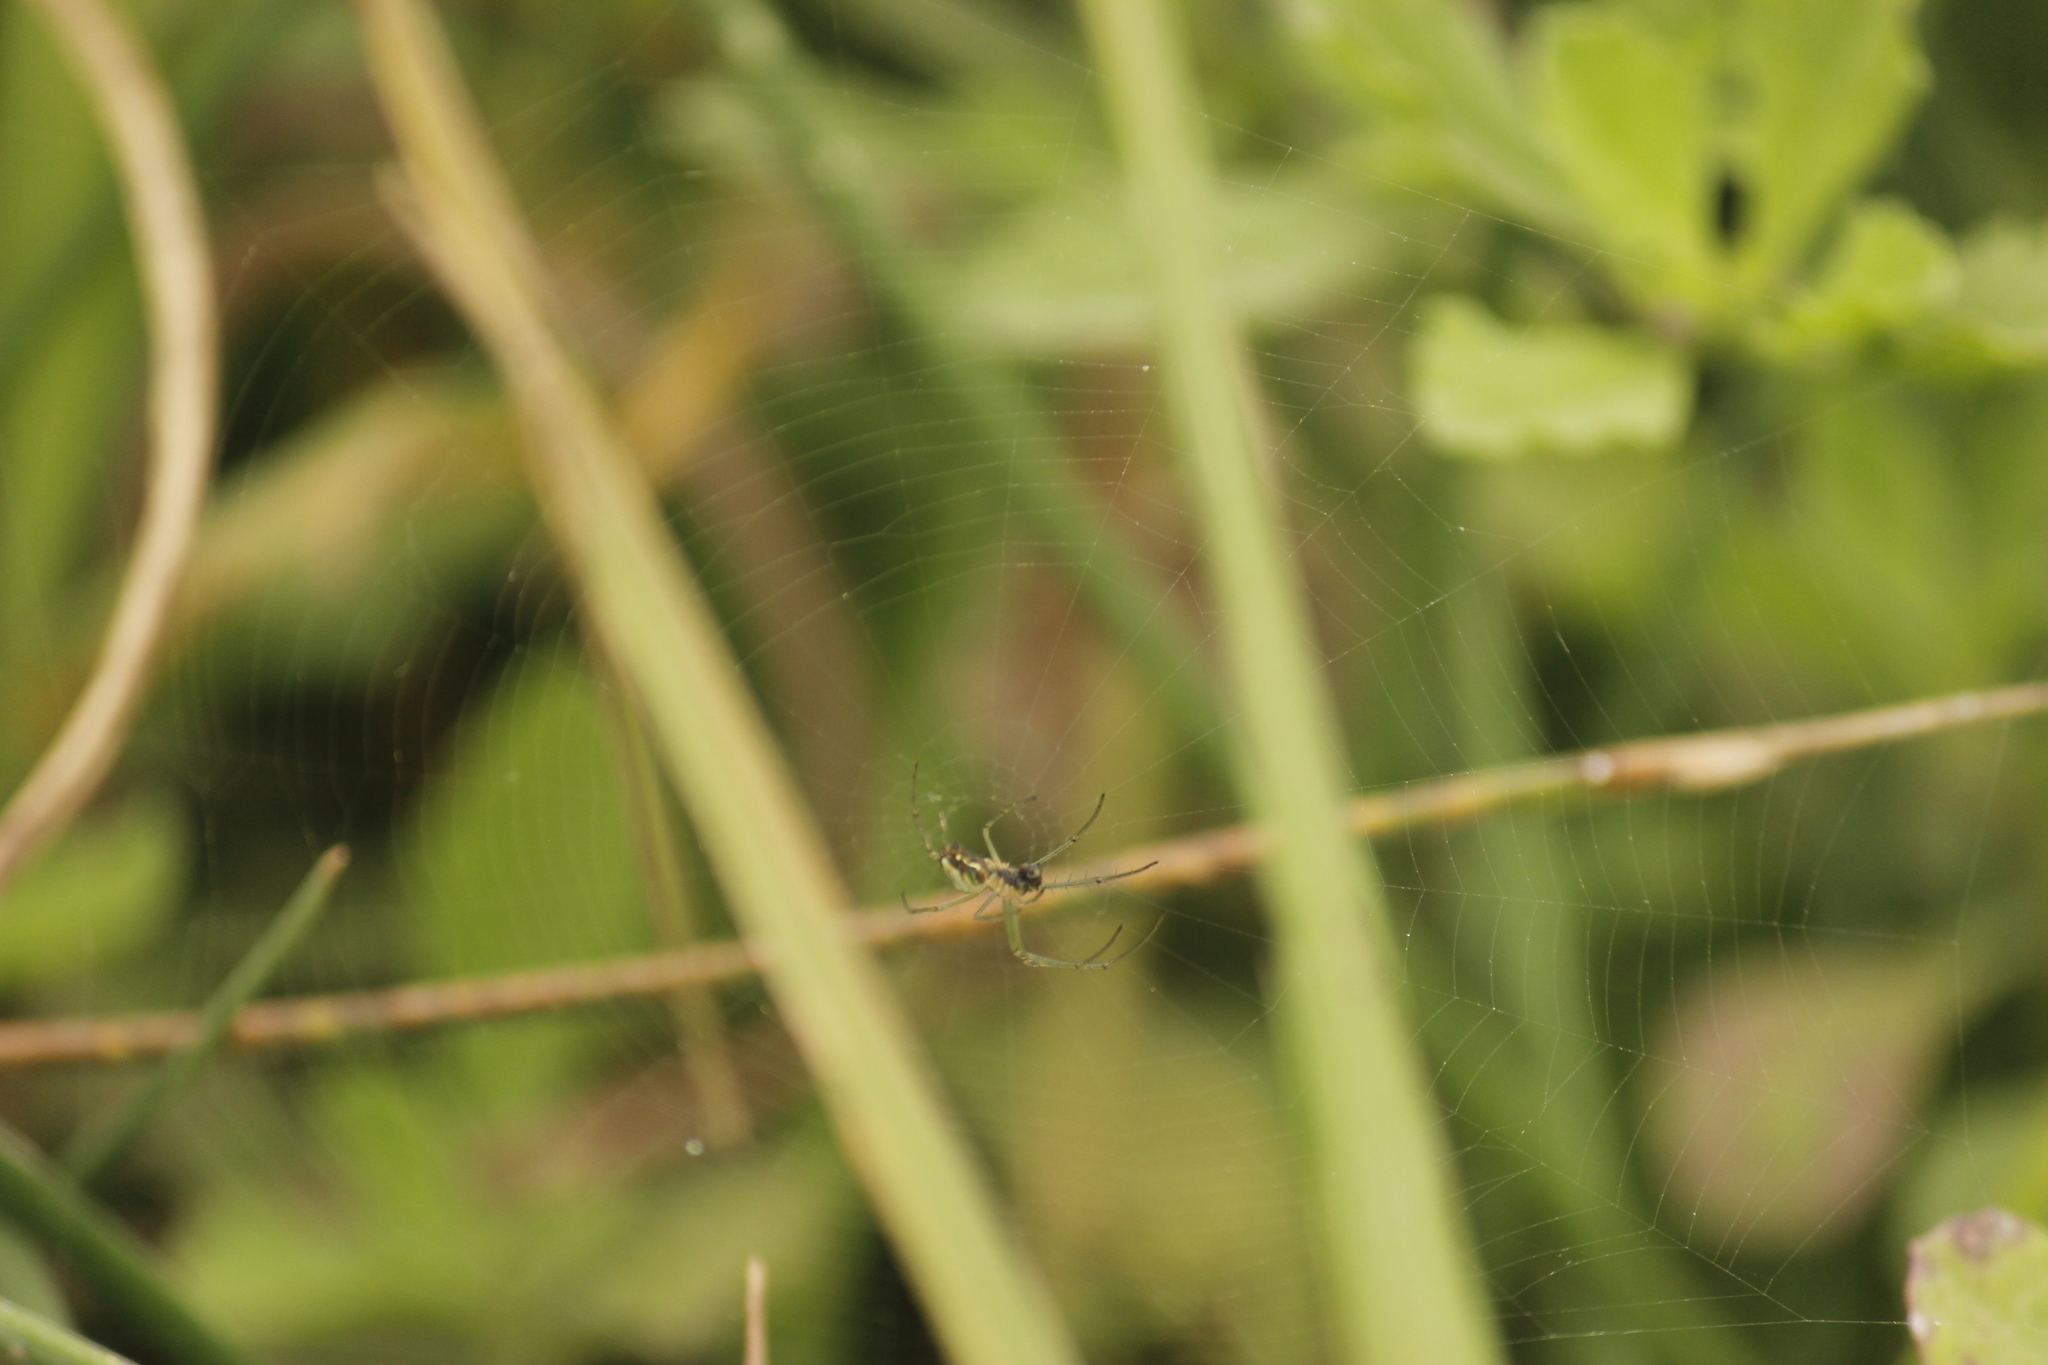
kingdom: Animalia
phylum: Arthropoda
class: Arachnida
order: Araneae
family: Tetragnathidae
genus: Leucauge
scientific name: Leucauge volupis
